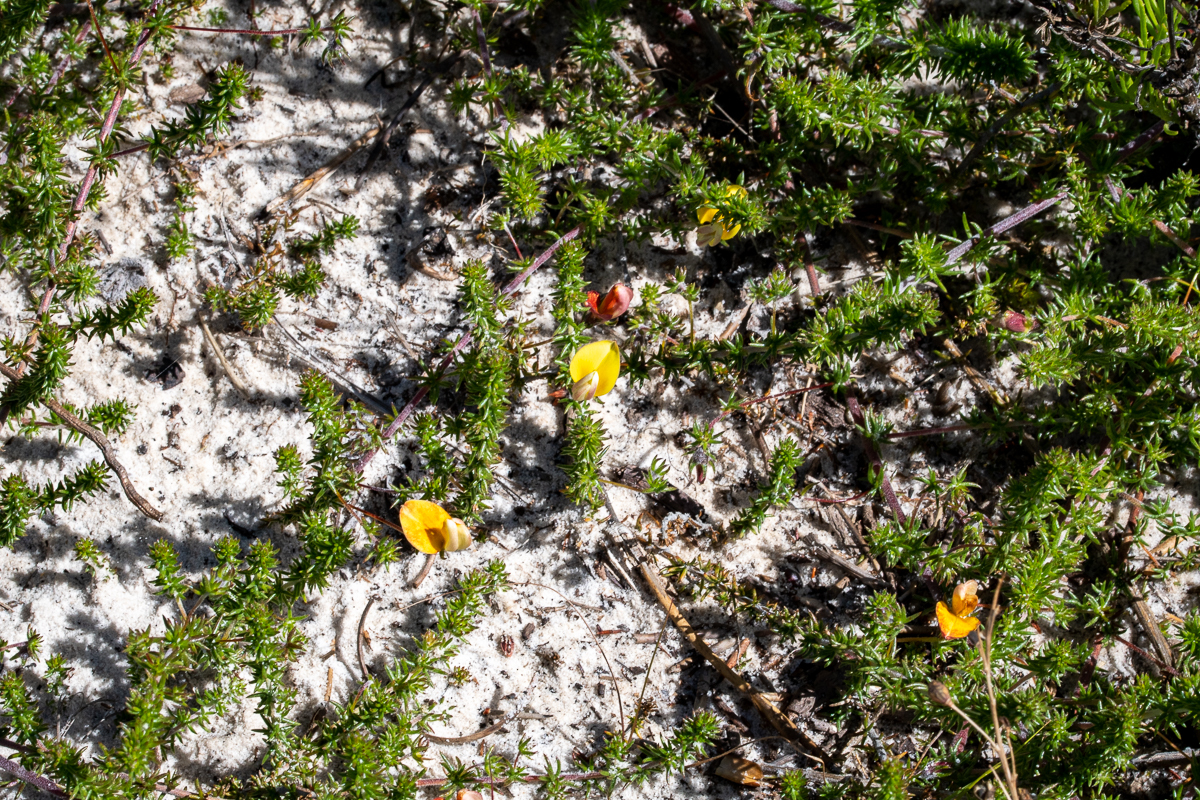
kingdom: Plantae
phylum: Tracheophyta
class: Magnoliopsida
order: Fabales
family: Fabaceae
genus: Aspalathus
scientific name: Aspalathus retroflexa
